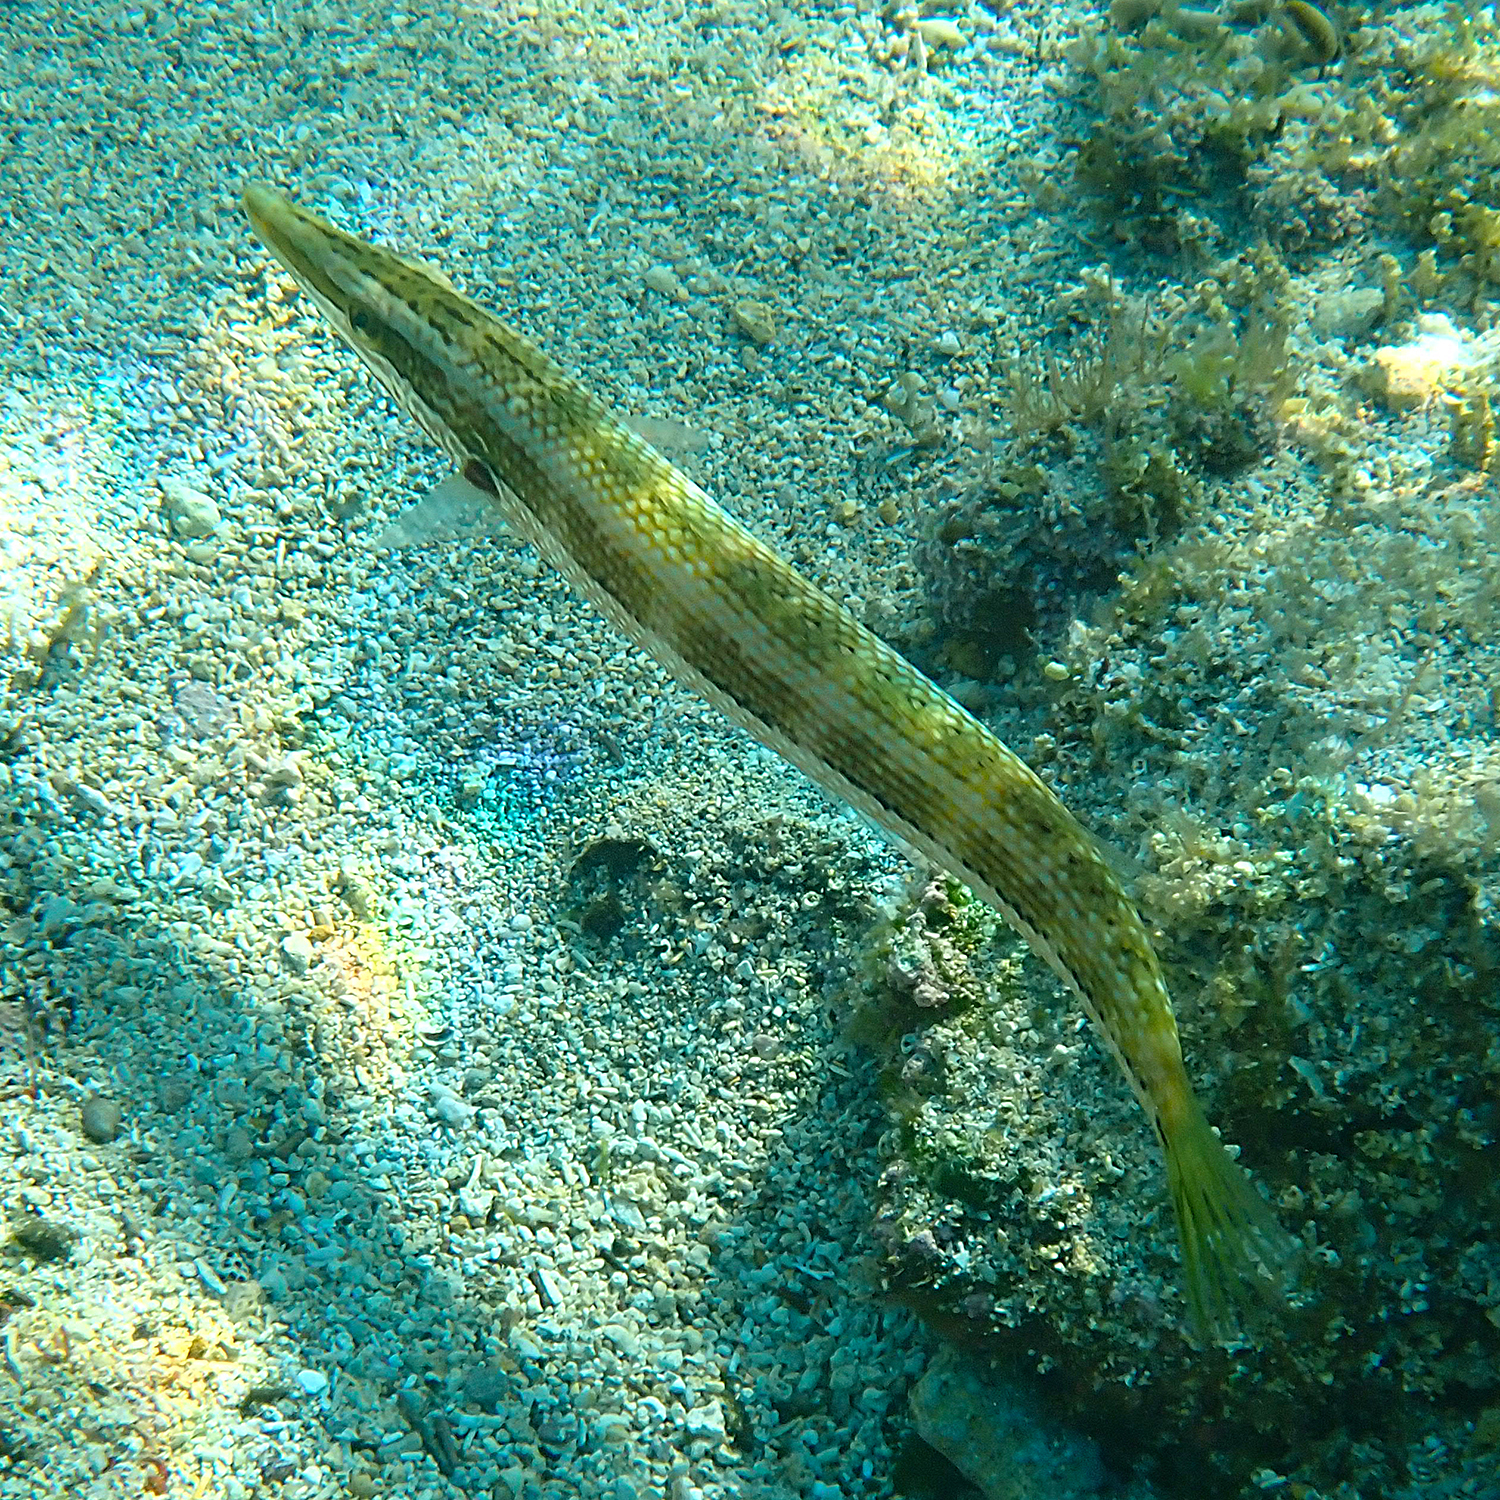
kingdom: Animalia
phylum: Chordata
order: Perciformes
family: Labridae
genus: Cheilio
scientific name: Cheilio inermis
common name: Cigar wrasse
